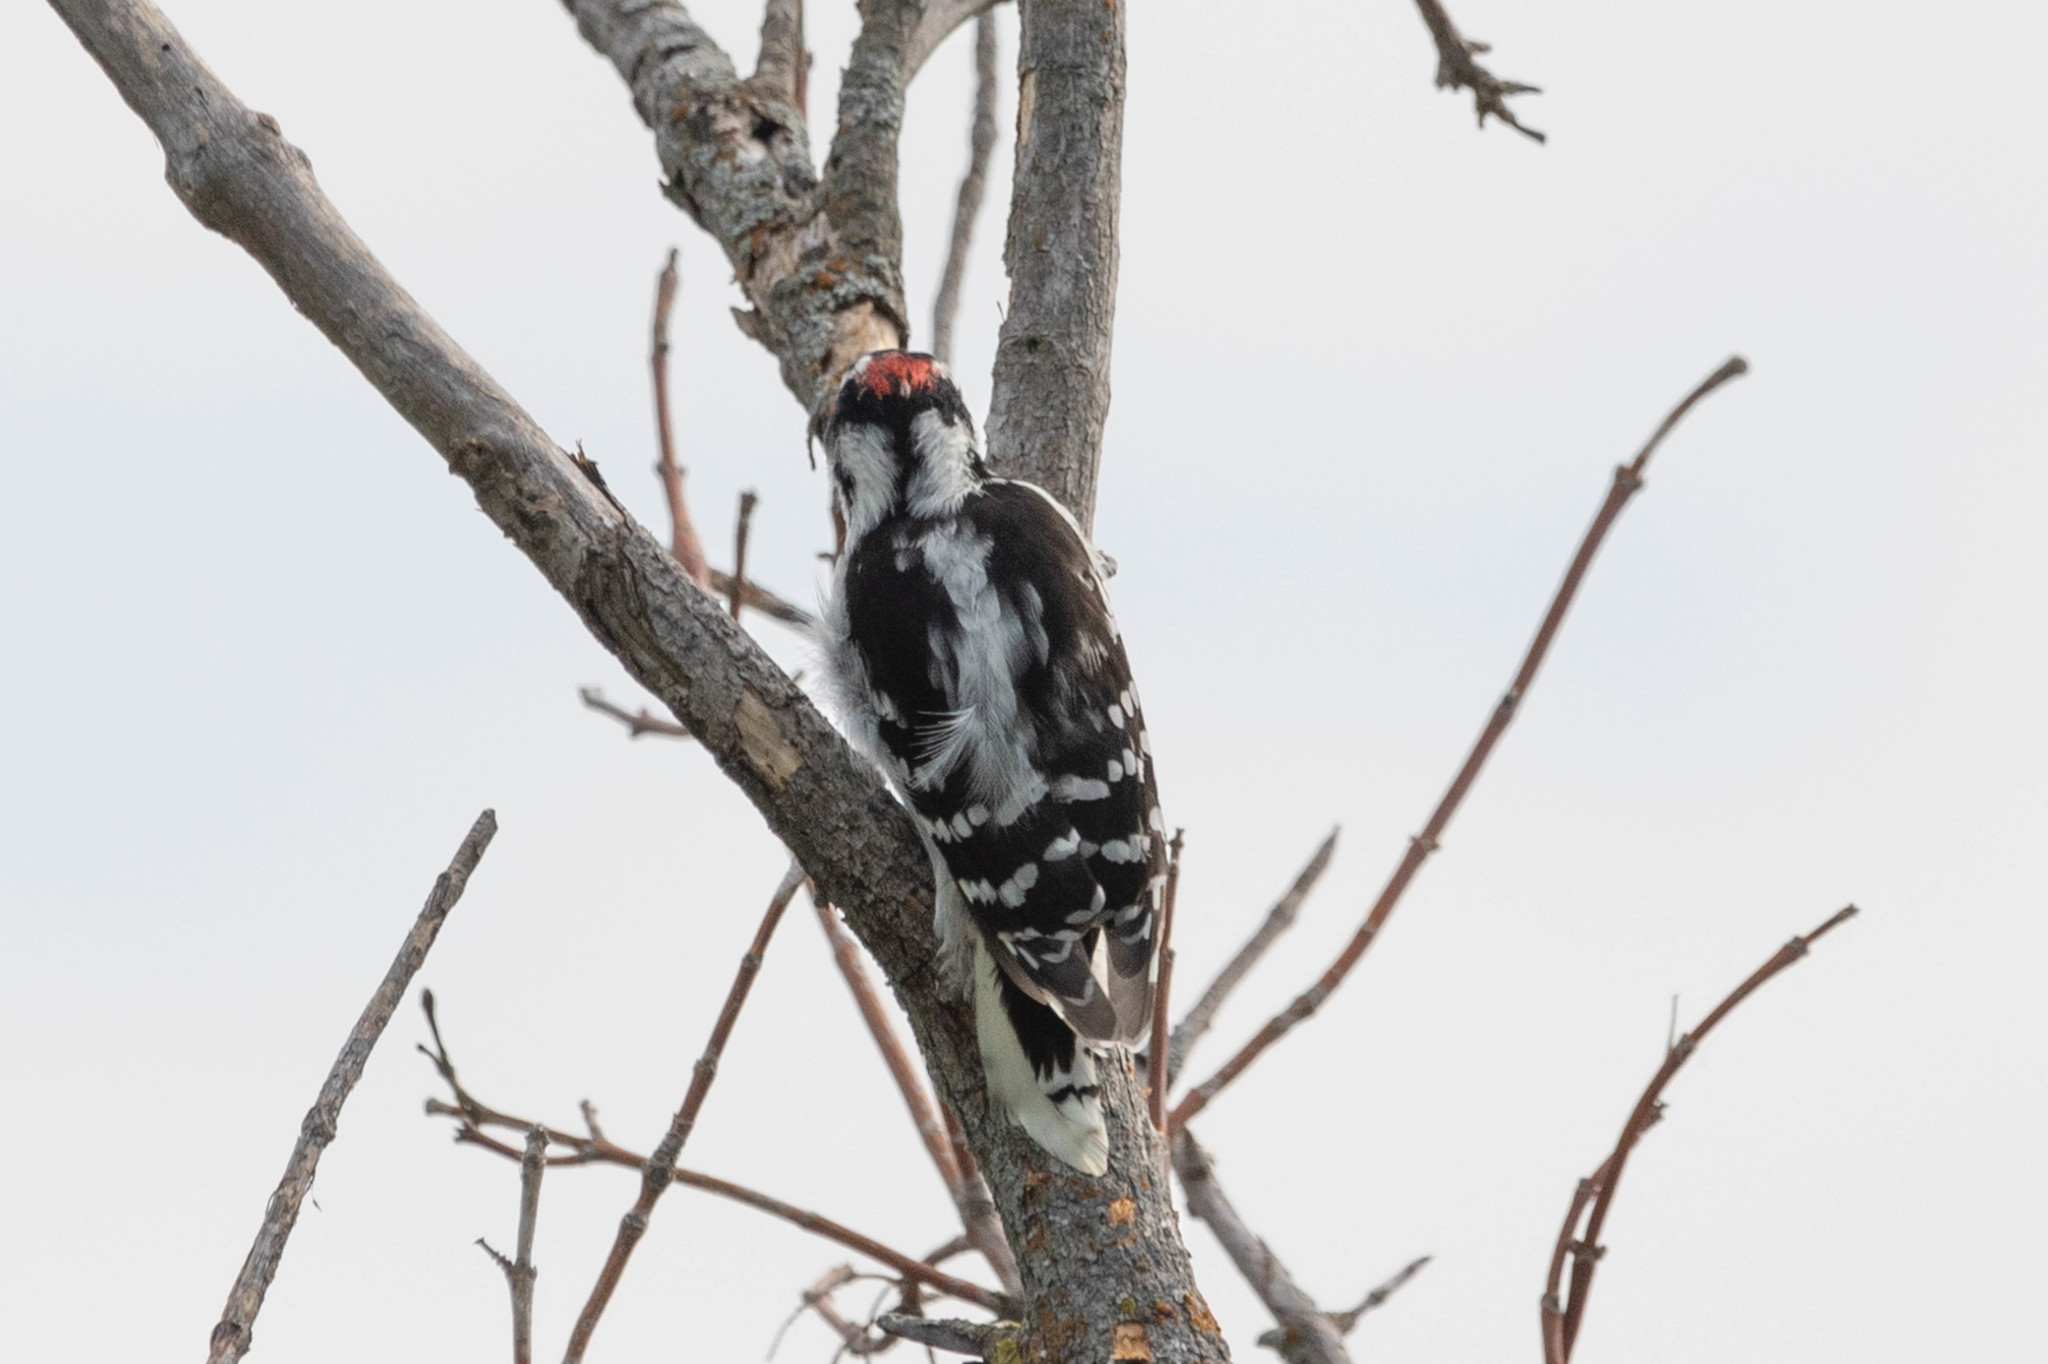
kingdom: Animalia
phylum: Chordata
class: Aves
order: Piciformes
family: Picidae
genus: Dryobates
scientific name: Dryobates pubescens
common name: Downy woodpecker
